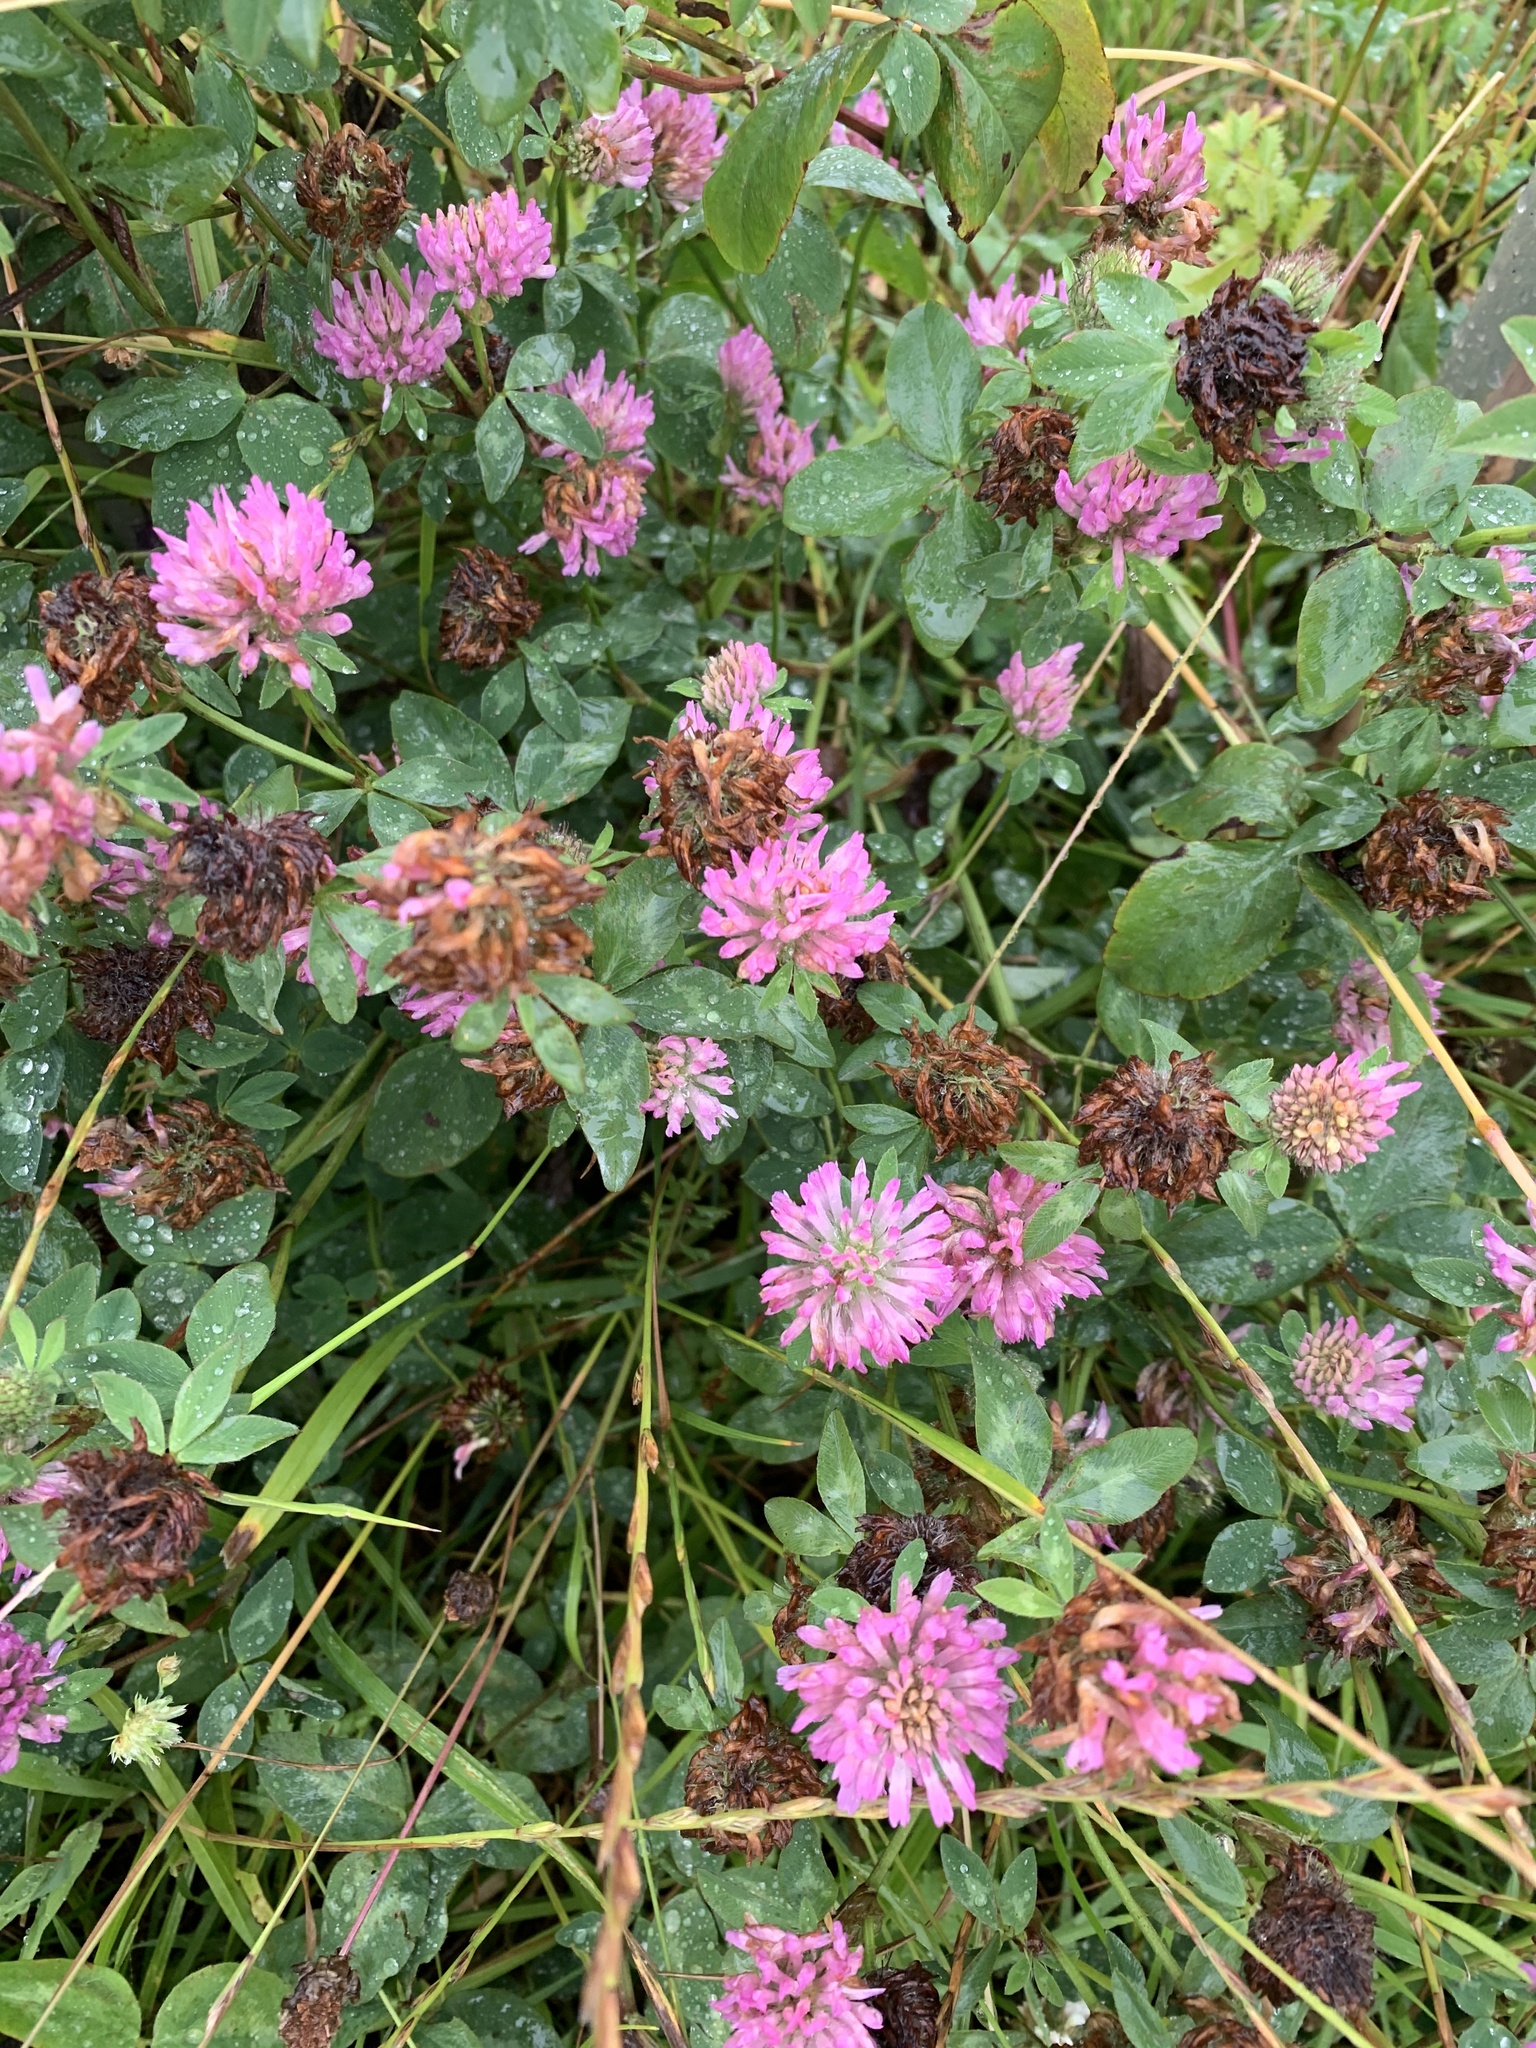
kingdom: Plantae
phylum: Tracheophyta
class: Magnoliopsida
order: Fabales
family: Fabaceae
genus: Trifolium
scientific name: Trifolium pratense
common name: Red clover
